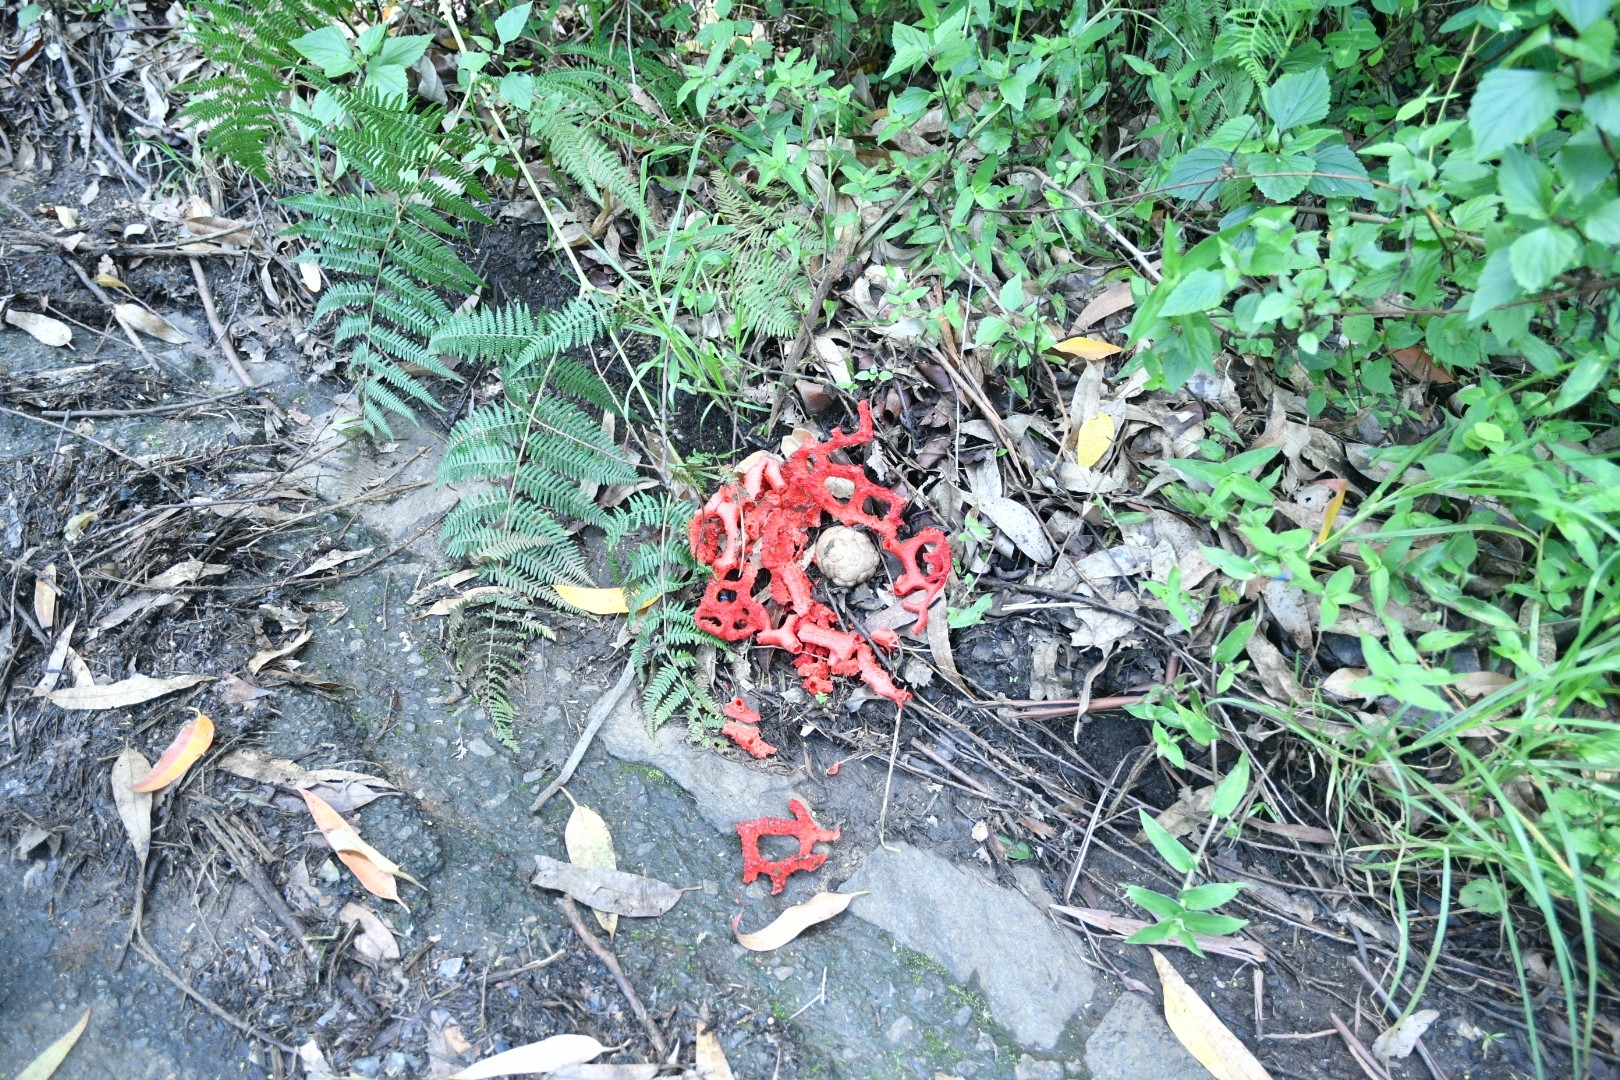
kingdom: Fungi
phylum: Basidiomycota
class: Agaricomycetes
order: Phallales
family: Phallaceae
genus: Clathrus
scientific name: Clathrus crispatus
